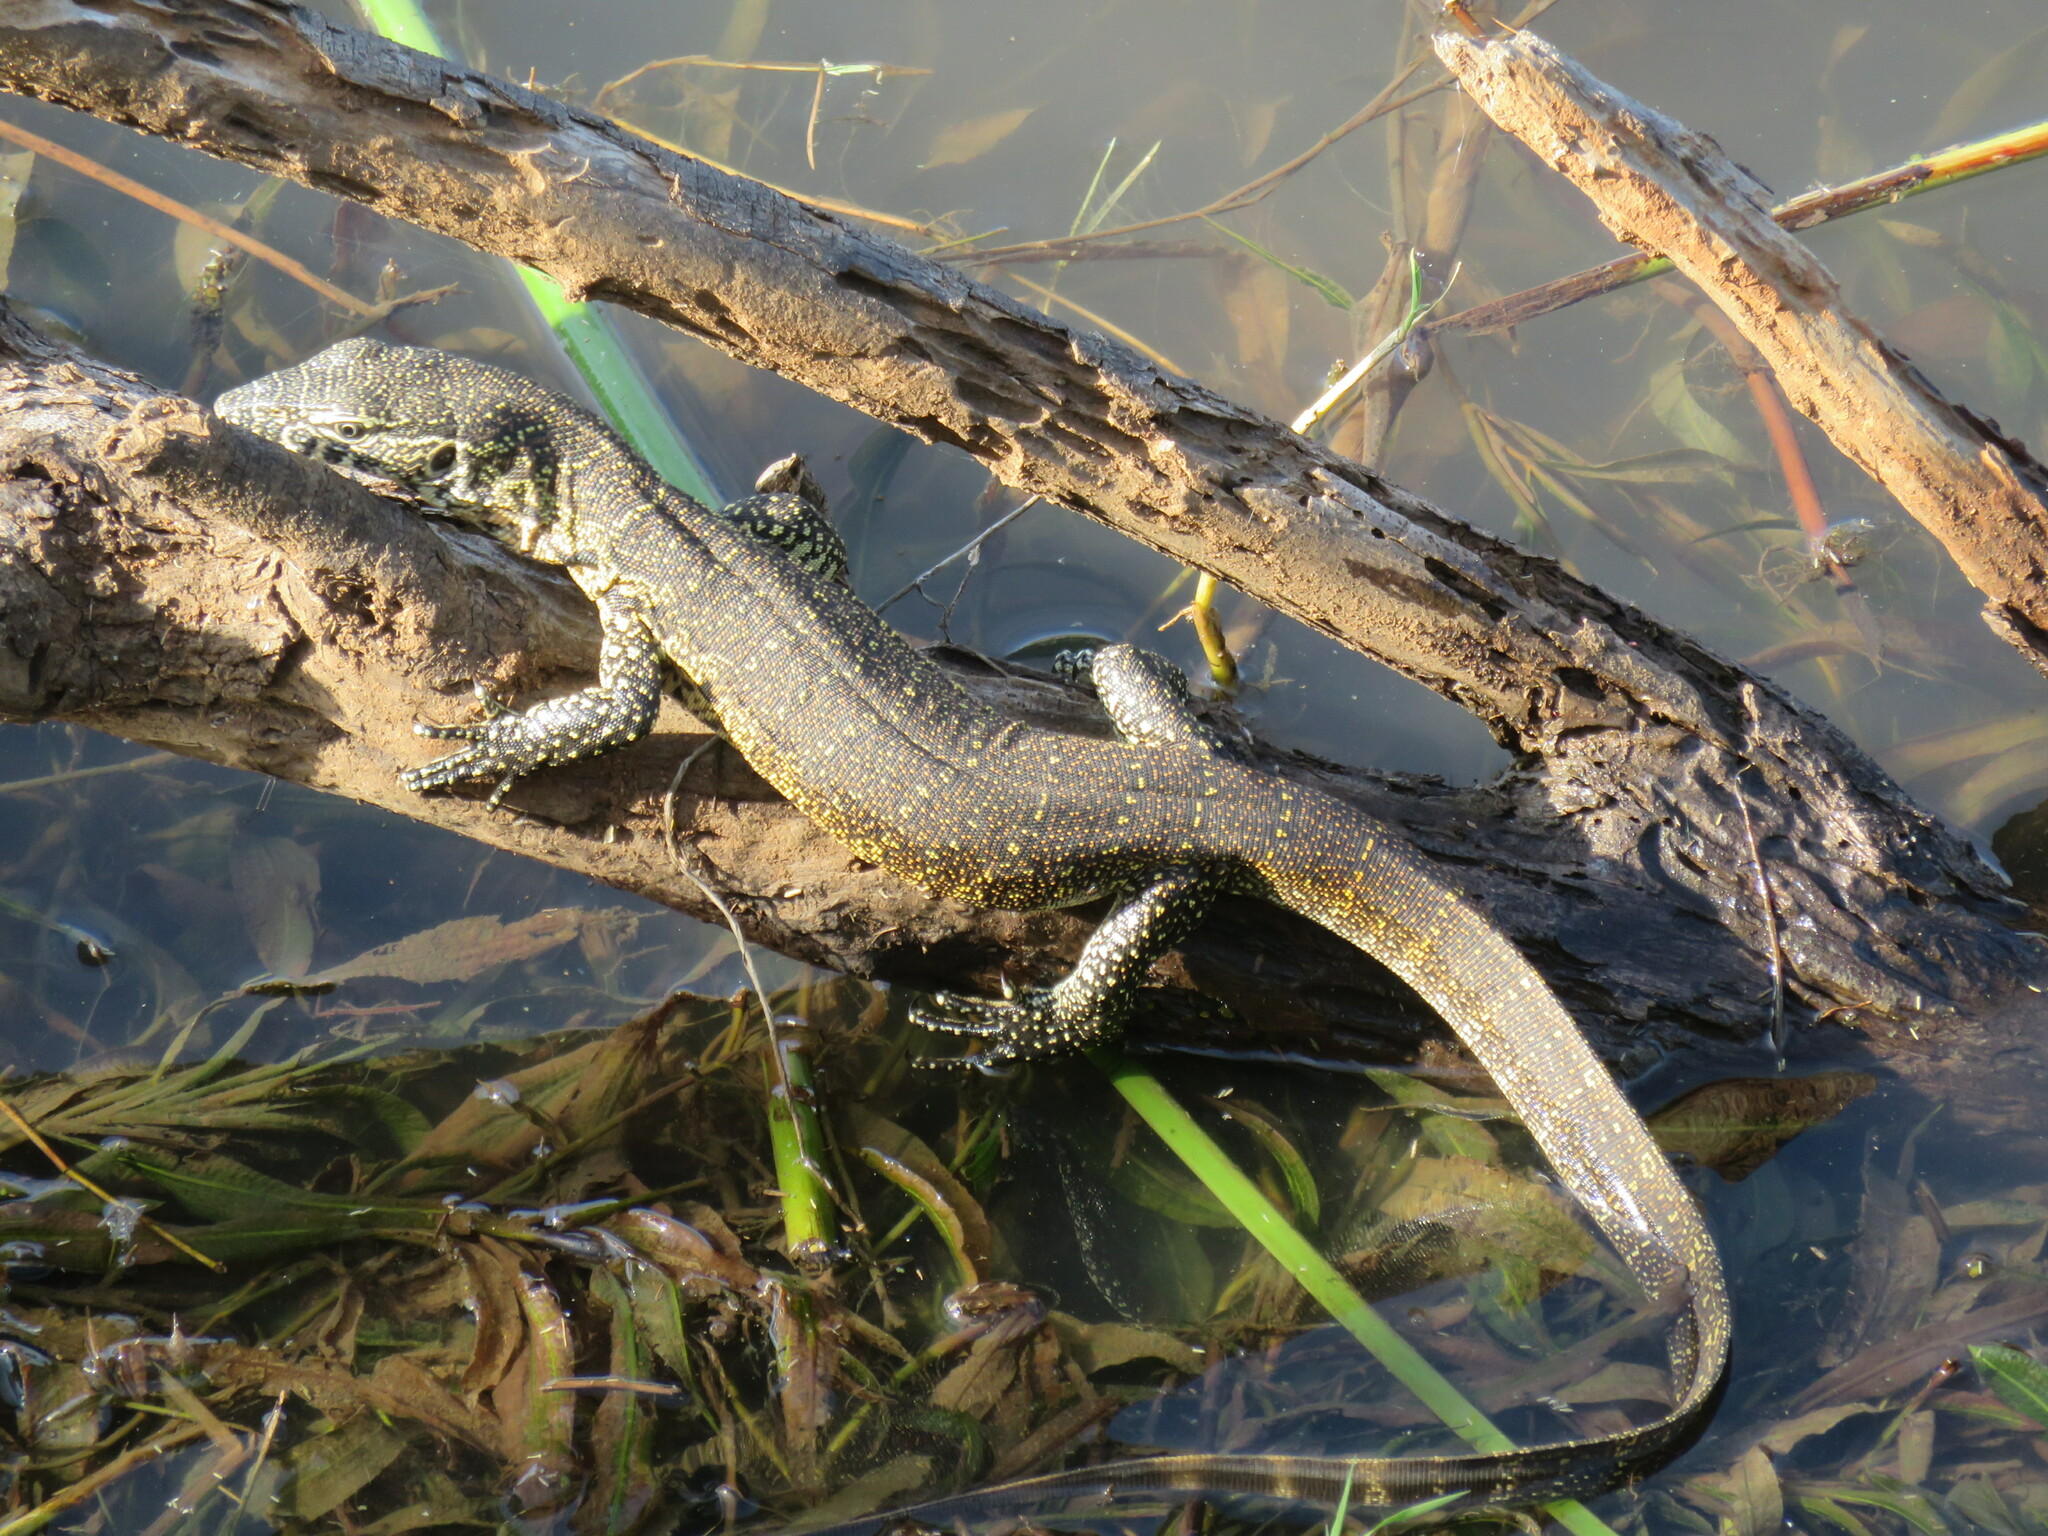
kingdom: Animalia
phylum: Chordata
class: Squamata
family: Varanidae
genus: Varanus
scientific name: Varanus niloticus
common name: Nile monitor
